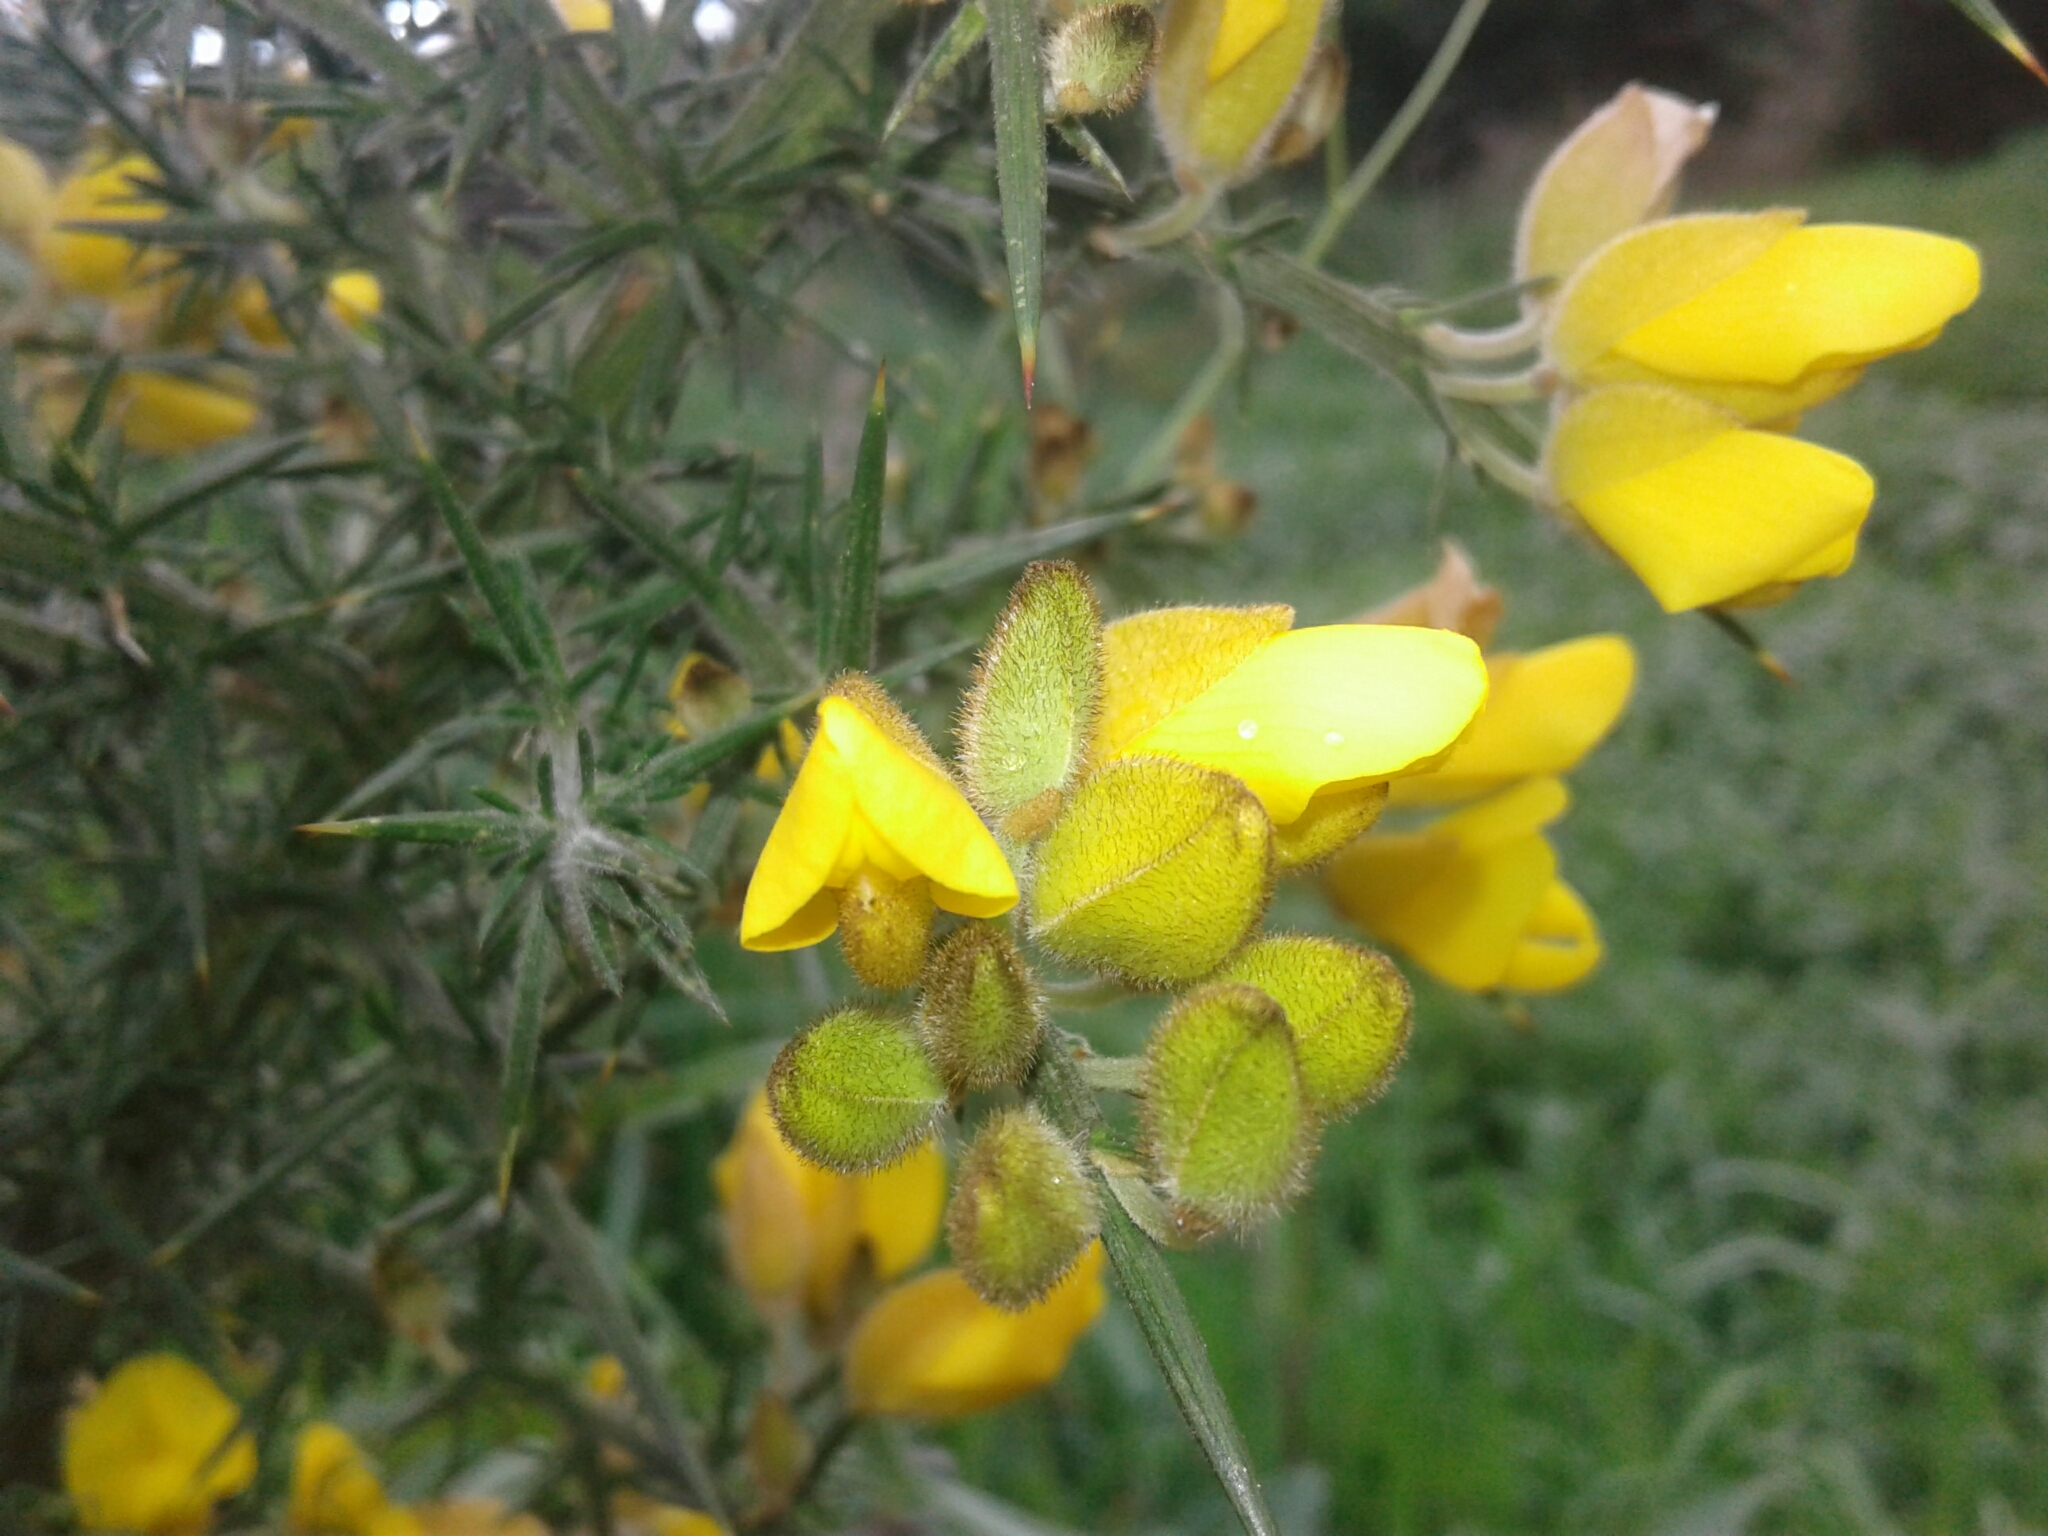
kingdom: Plantae
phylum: Tracheophyta
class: Magnoliopsida
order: Fabales
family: Fabaceae
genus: Ulex
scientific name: Ulex europaeus
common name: Common gorse
